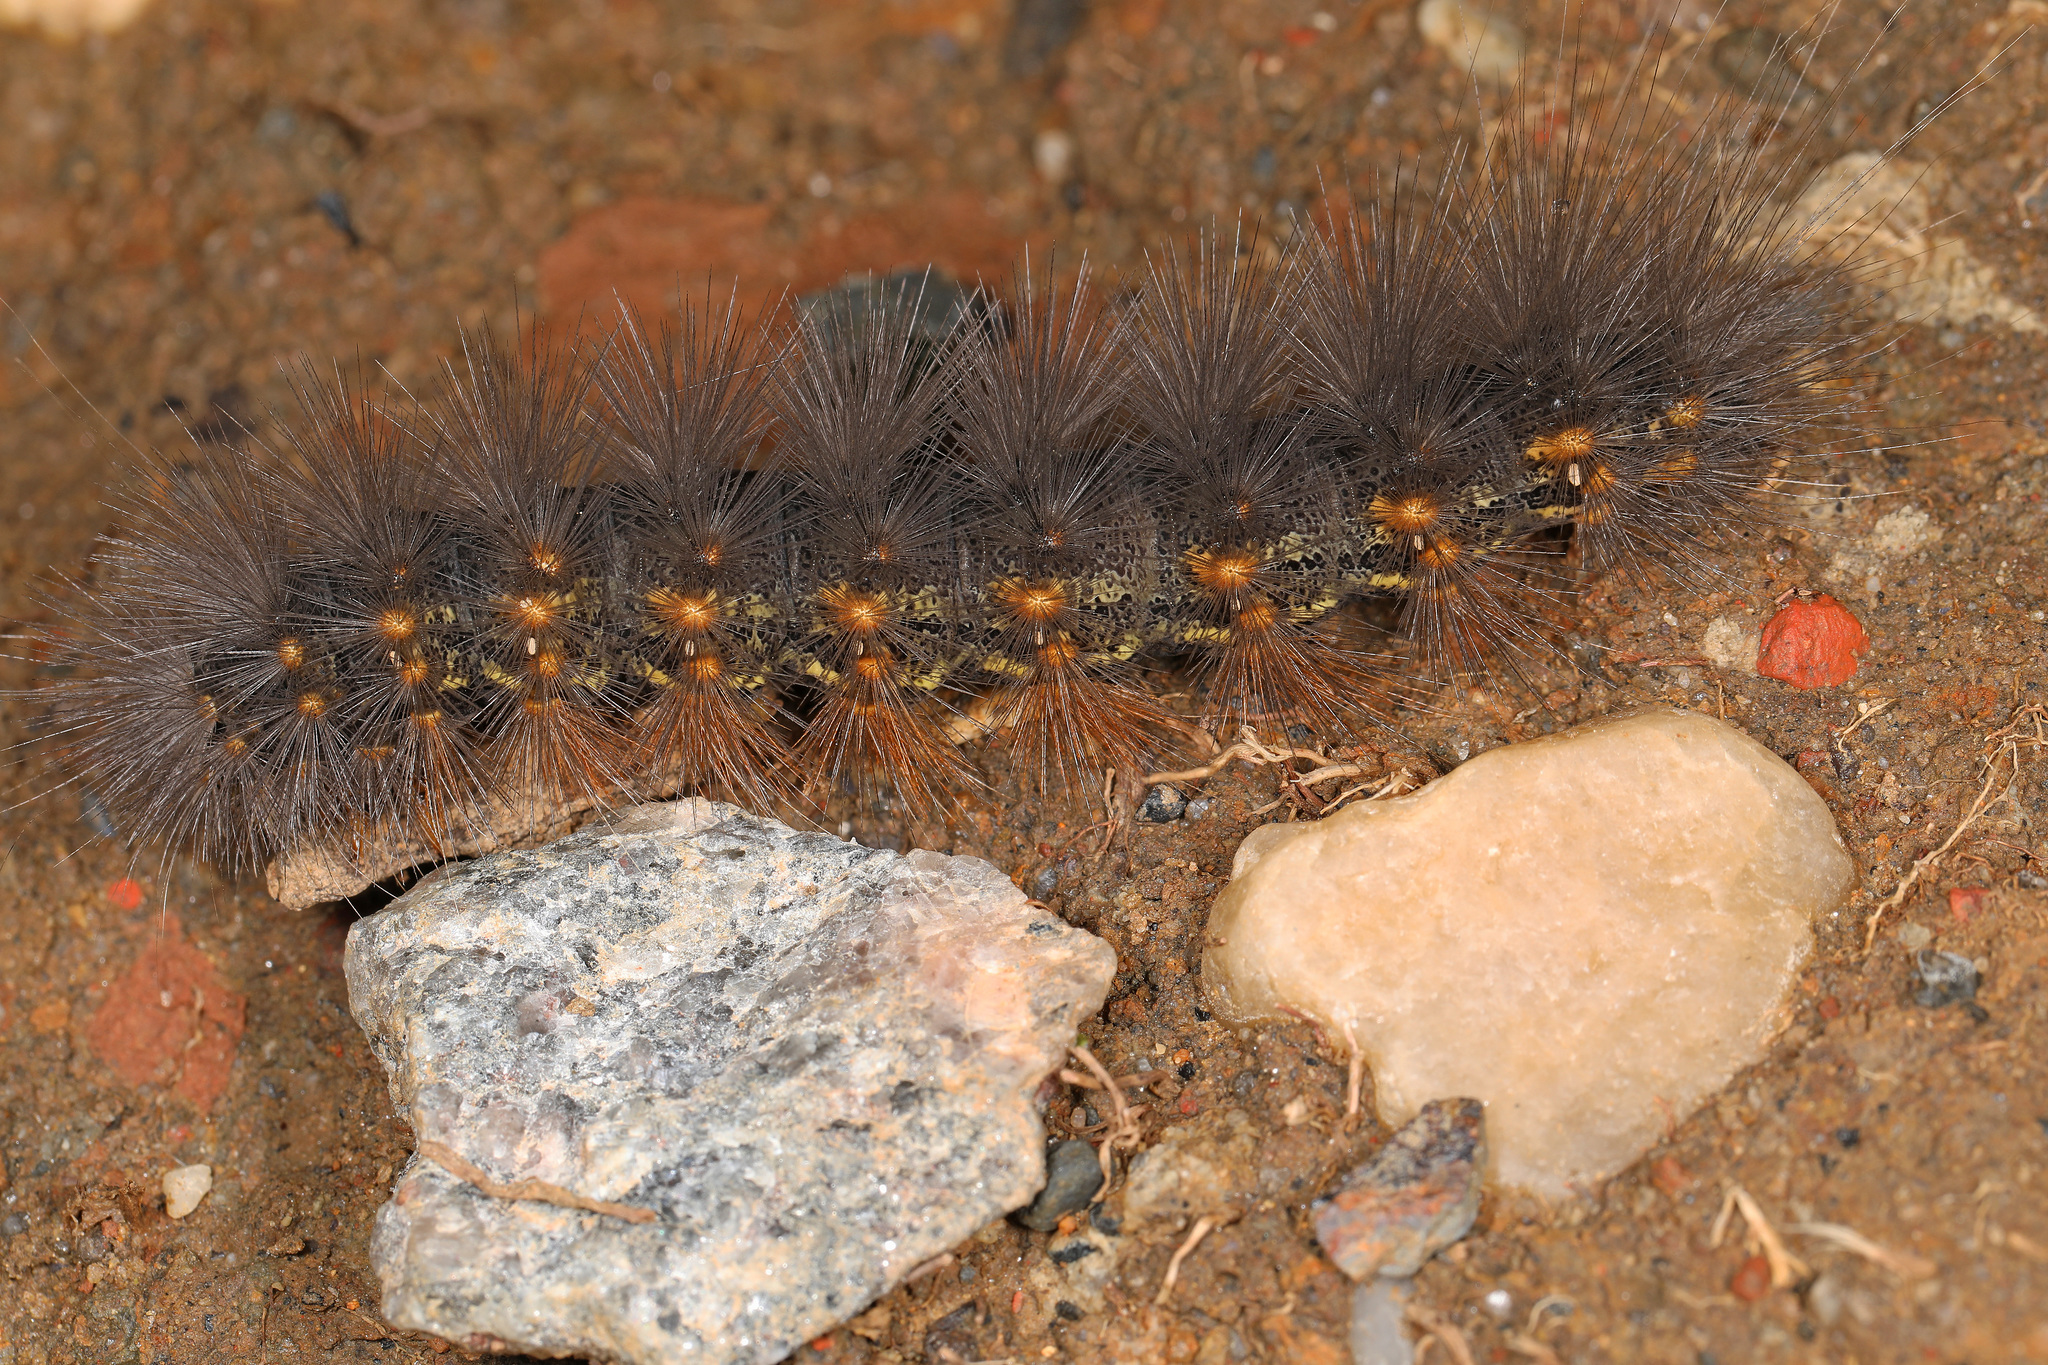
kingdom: Animalia
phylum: Arthropoda
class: Insecta
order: Lepidoptera
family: Erebidae
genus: Estigmene
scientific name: Estigmene acrea
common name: Salt marsh moth
